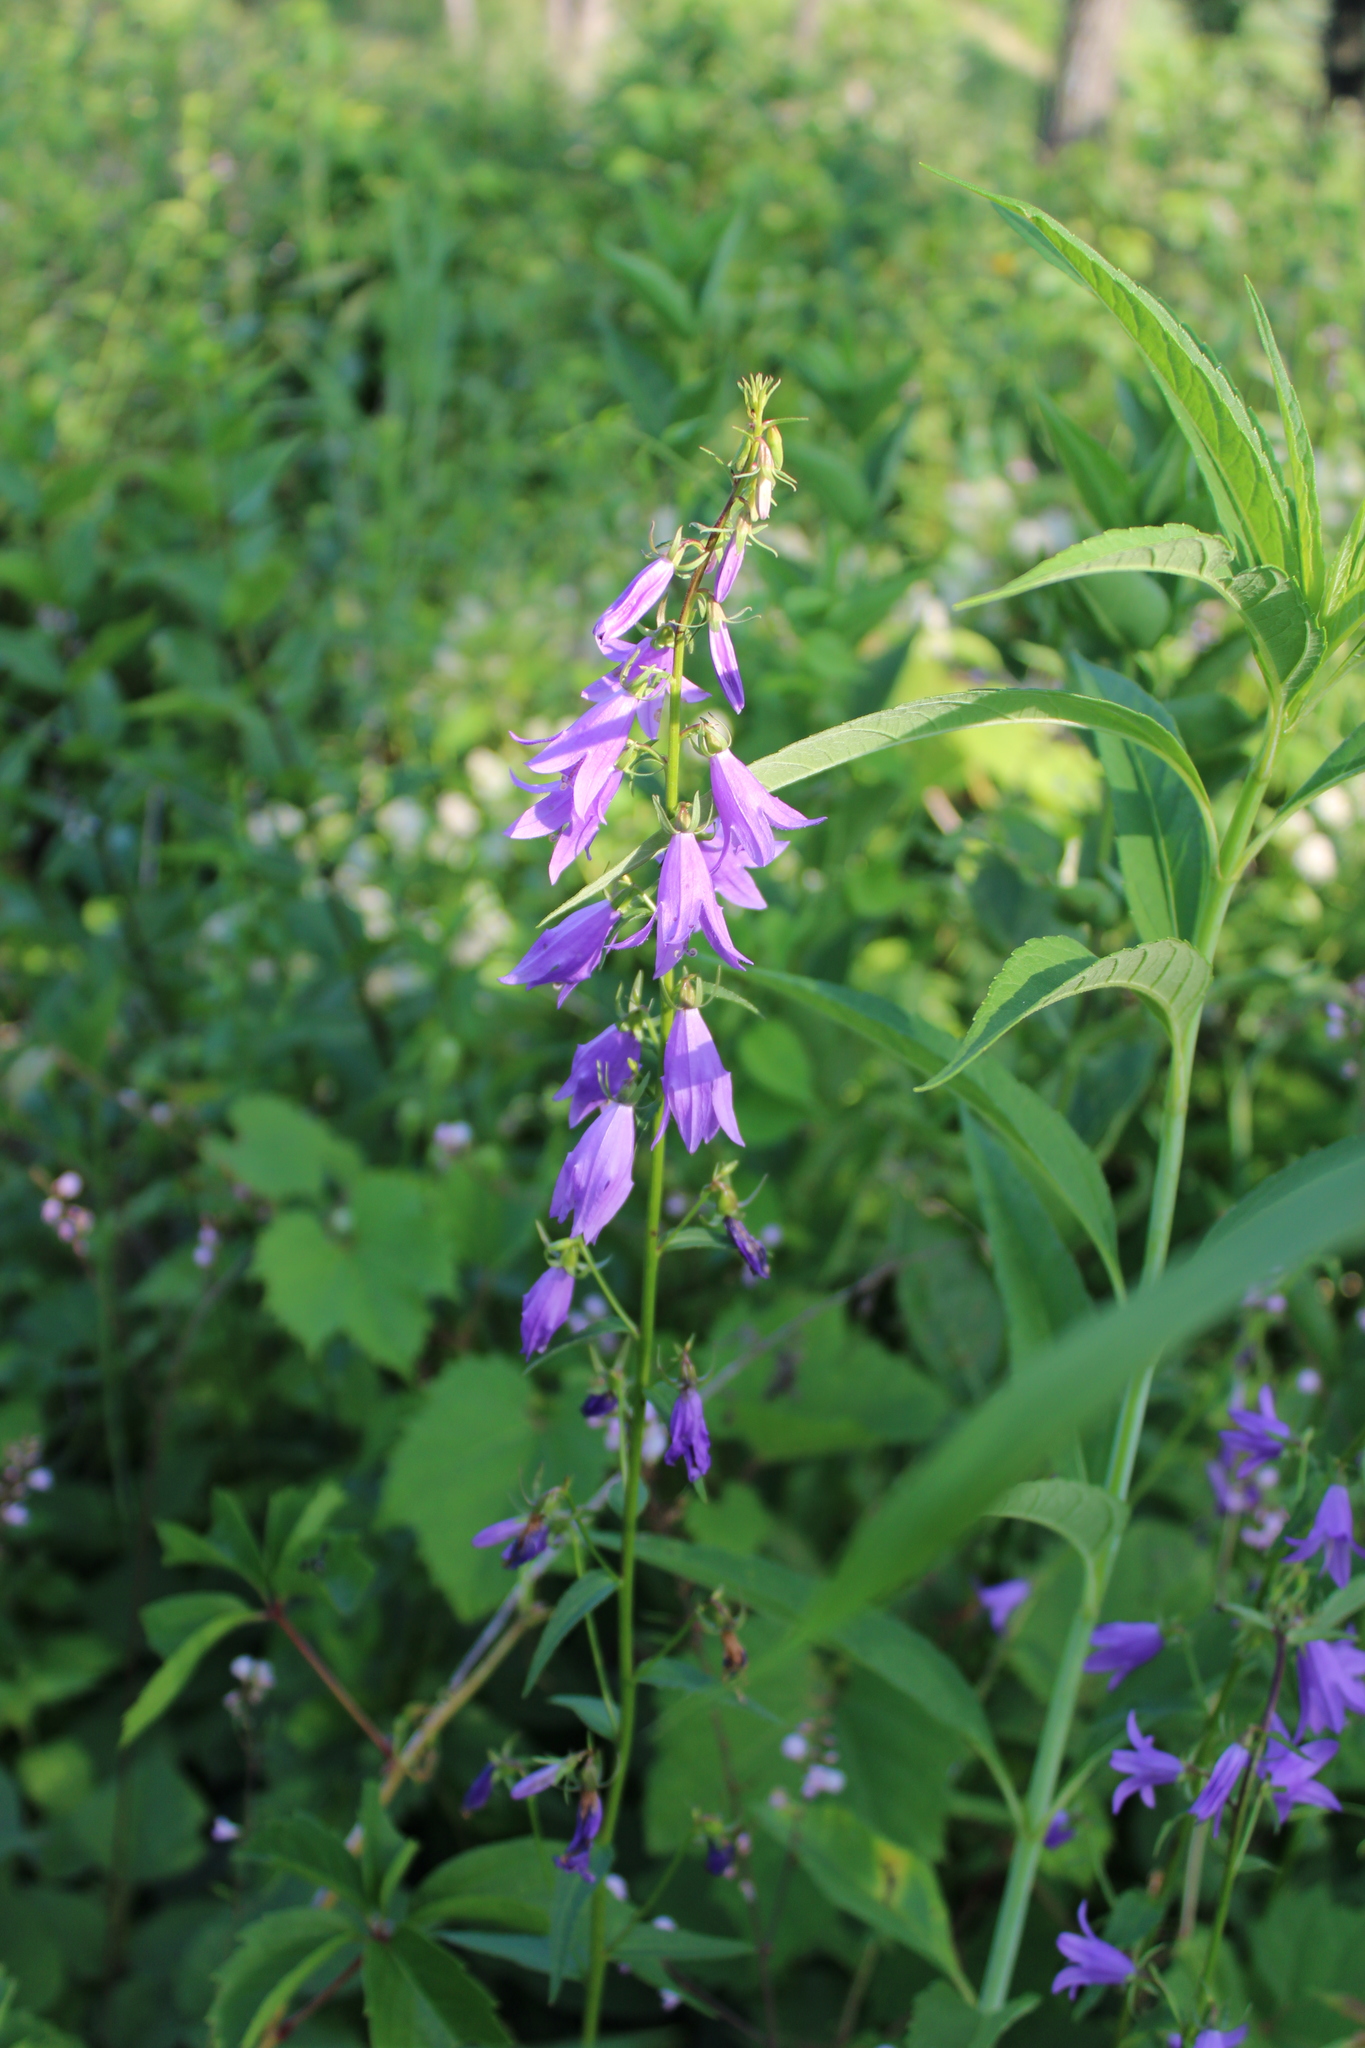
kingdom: Plantae
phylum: Tracheophyta
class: Magnoliopsida
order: Asterales
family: Campanulaceae
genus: Campanula
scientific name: Campanula rapunculoides
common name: Creeping bellflower
